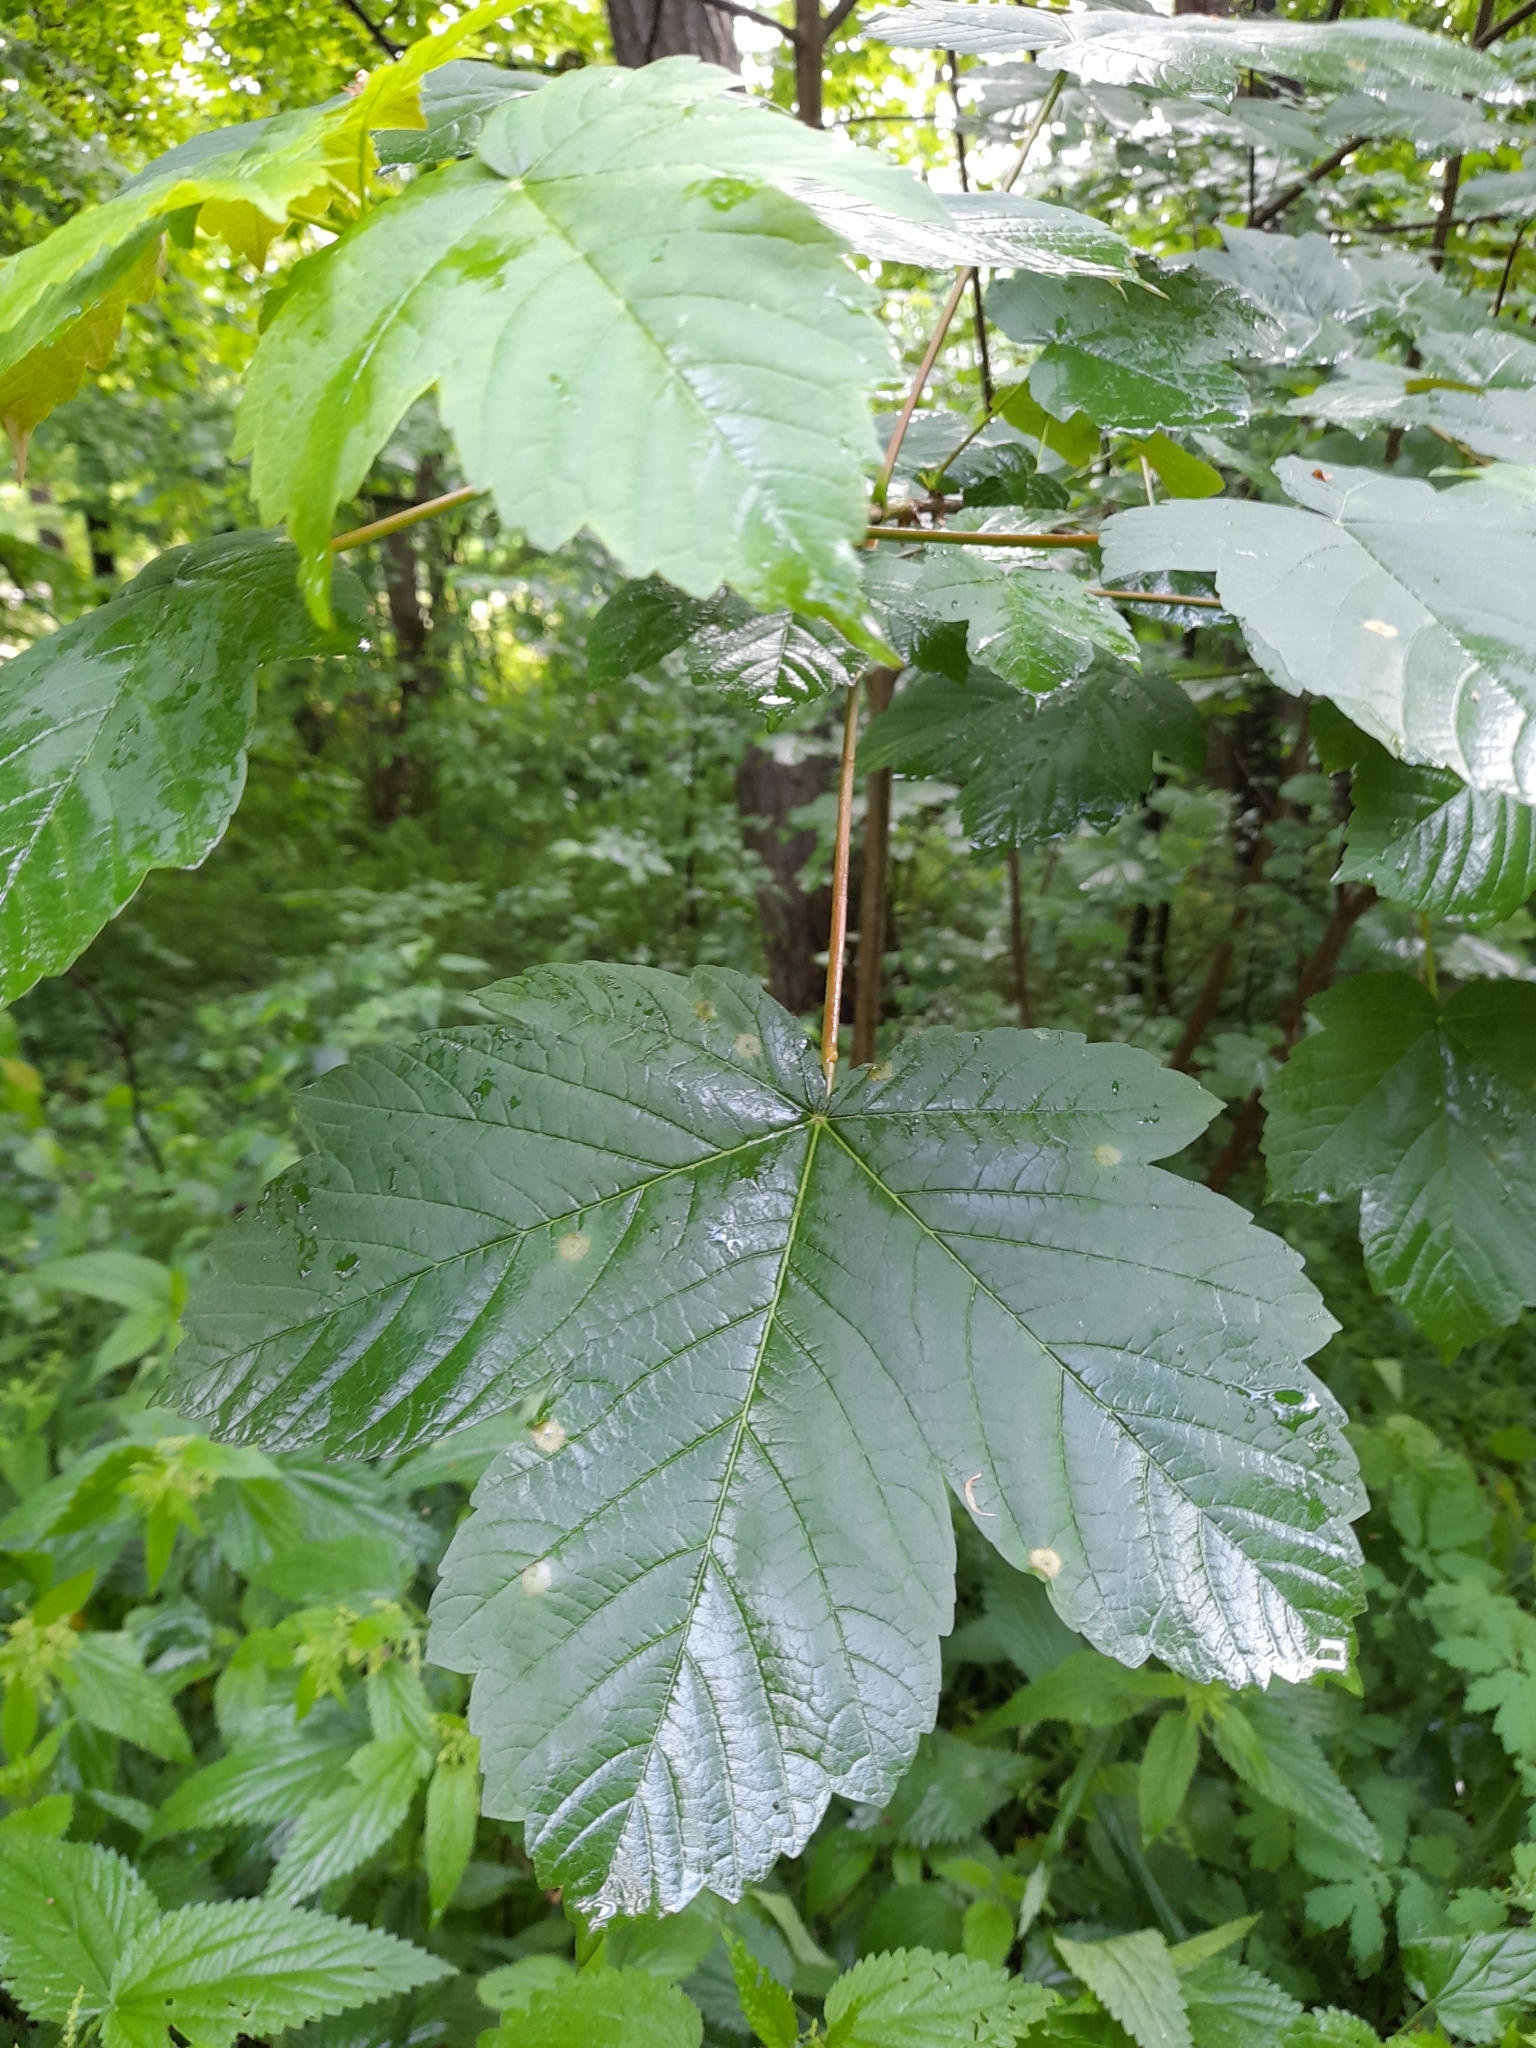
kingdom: Plantae
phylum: Tracheophyta
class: Magnoliopsida
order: Sapindales
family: Sapindaceae
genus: Acer
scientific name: Acer pseudoplatanus
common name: Sycamore
